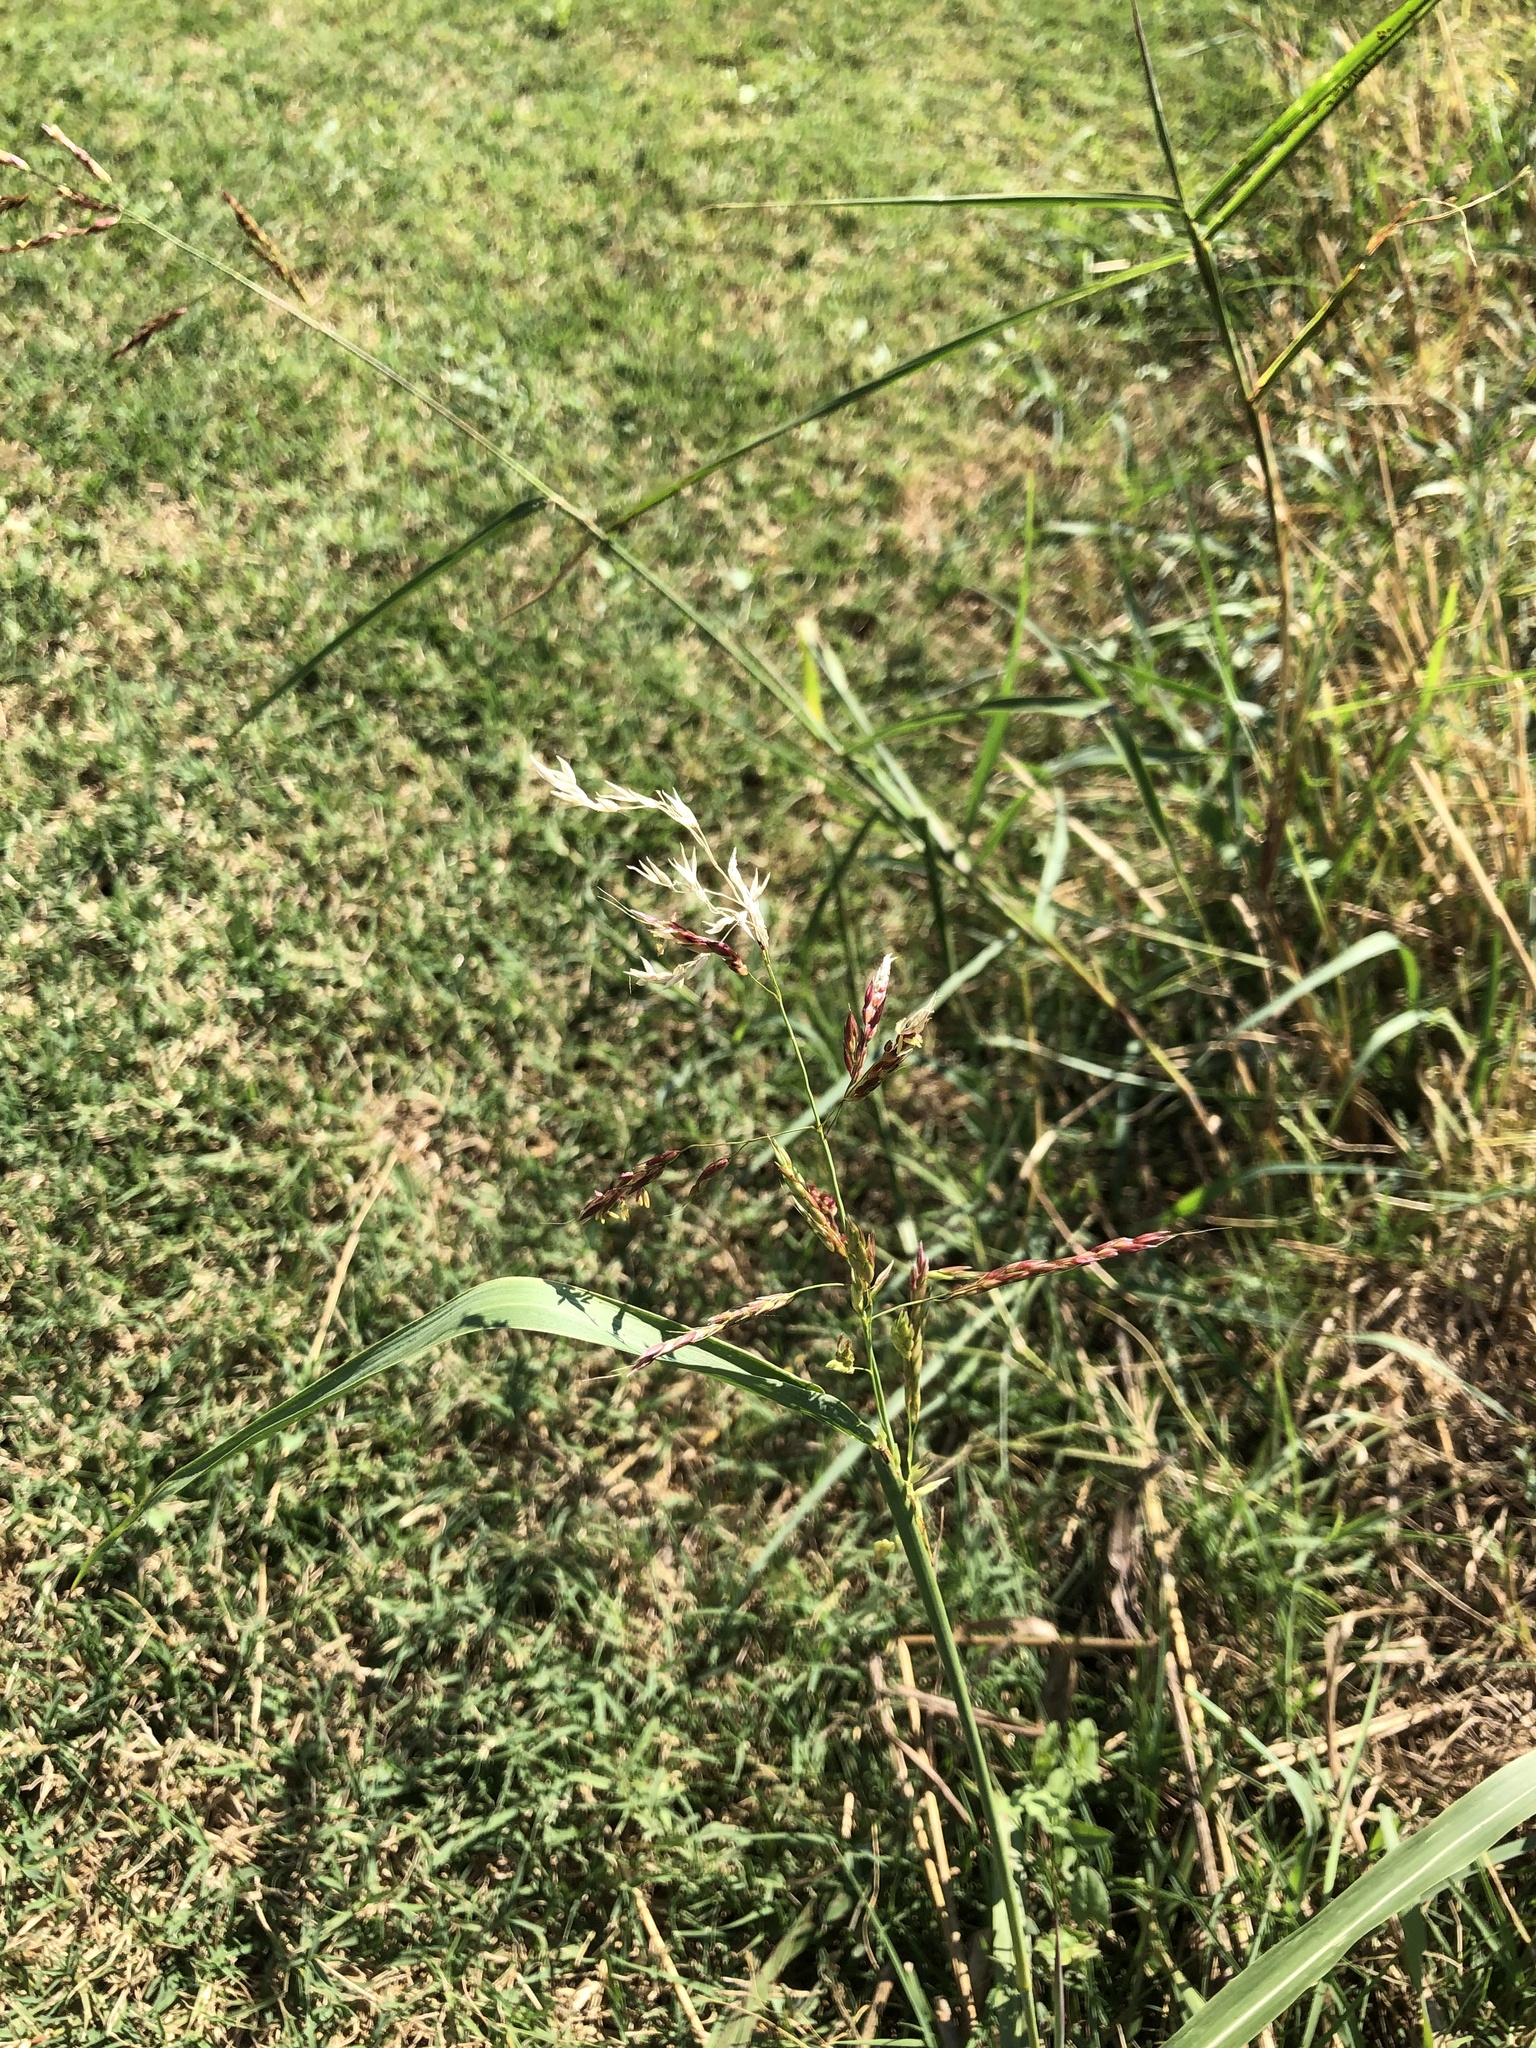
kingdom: Plantae
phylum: Tracheophyta
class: Liliopsida
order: Poales
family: Poaceae
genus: Sorghum
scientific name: Sorghum halepense
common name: Johnson-grass
